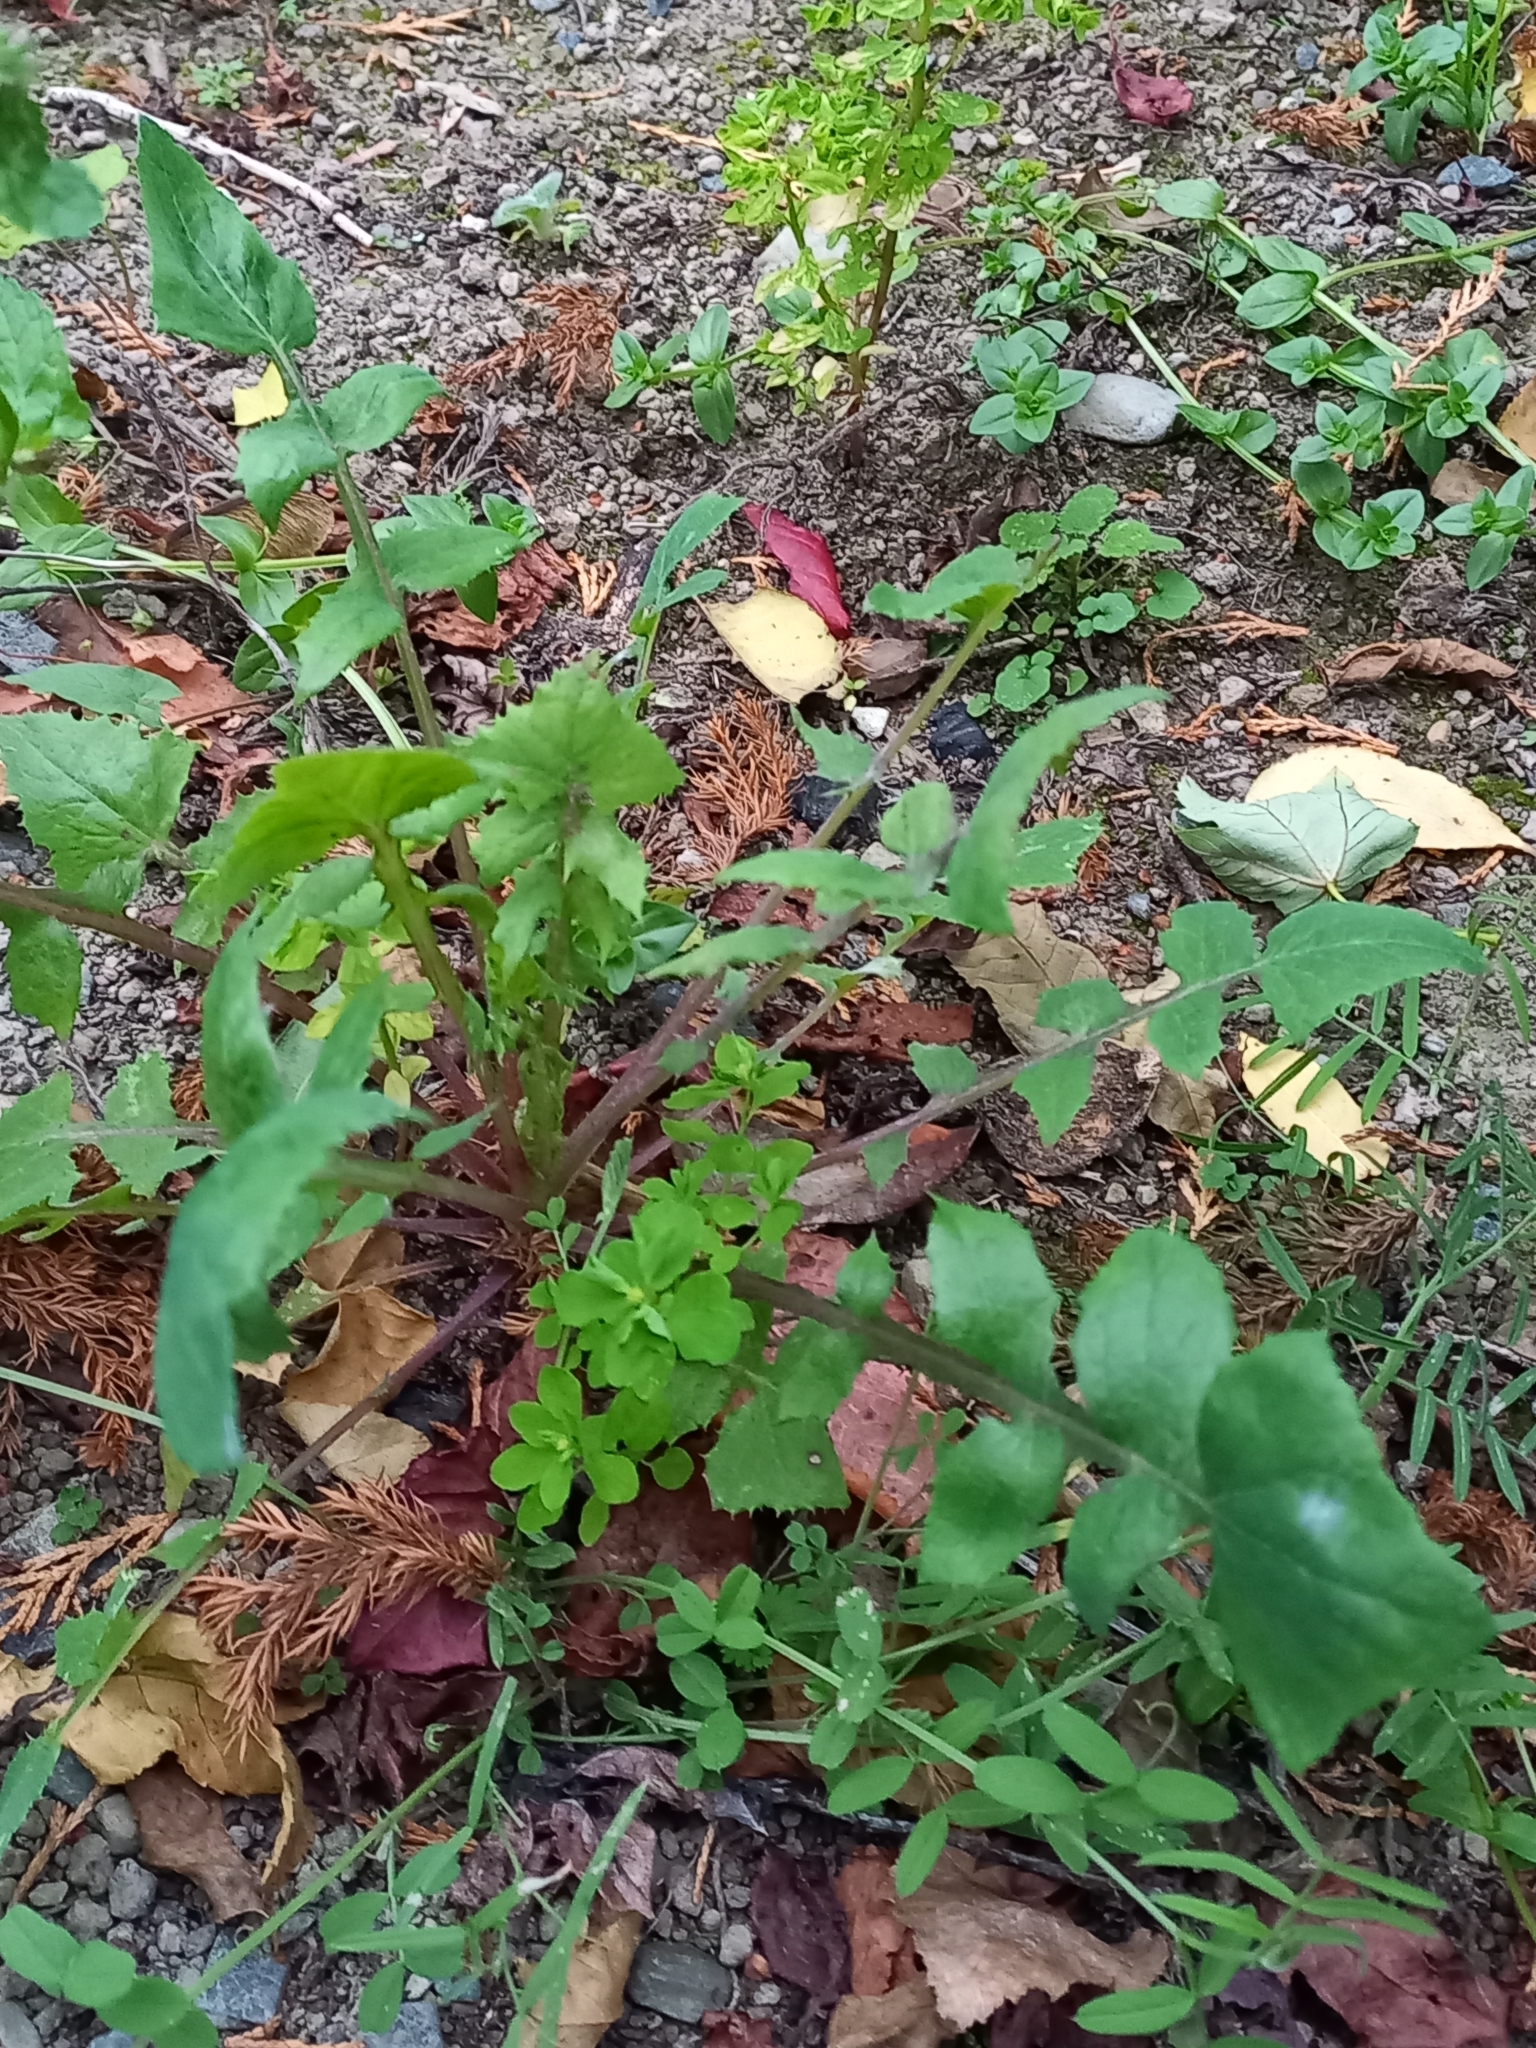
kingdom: Plantae
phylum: Tracheophyta
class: Magnoliopsida
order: Asterales
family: Asteraceae
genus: Sonchus
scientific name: Sonchus oleraceus
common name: Common sowthistle
